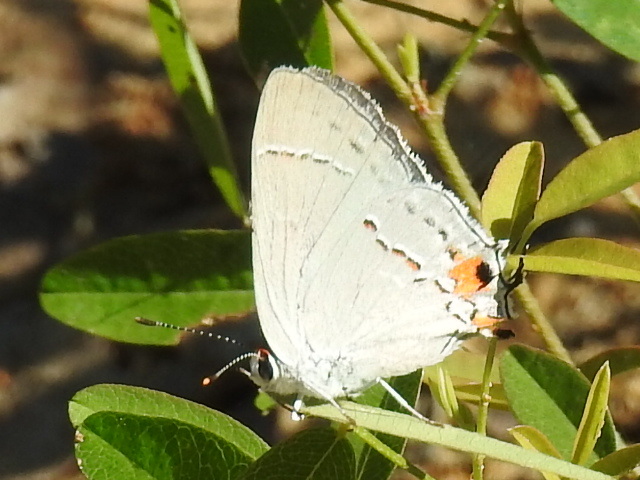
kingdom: Animalia
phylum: Arthropoda
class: Insecta
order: Lepidoptera
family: Lycaenidae
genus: Strymon
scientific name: Strymon melinus
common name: Gray hairstreak
